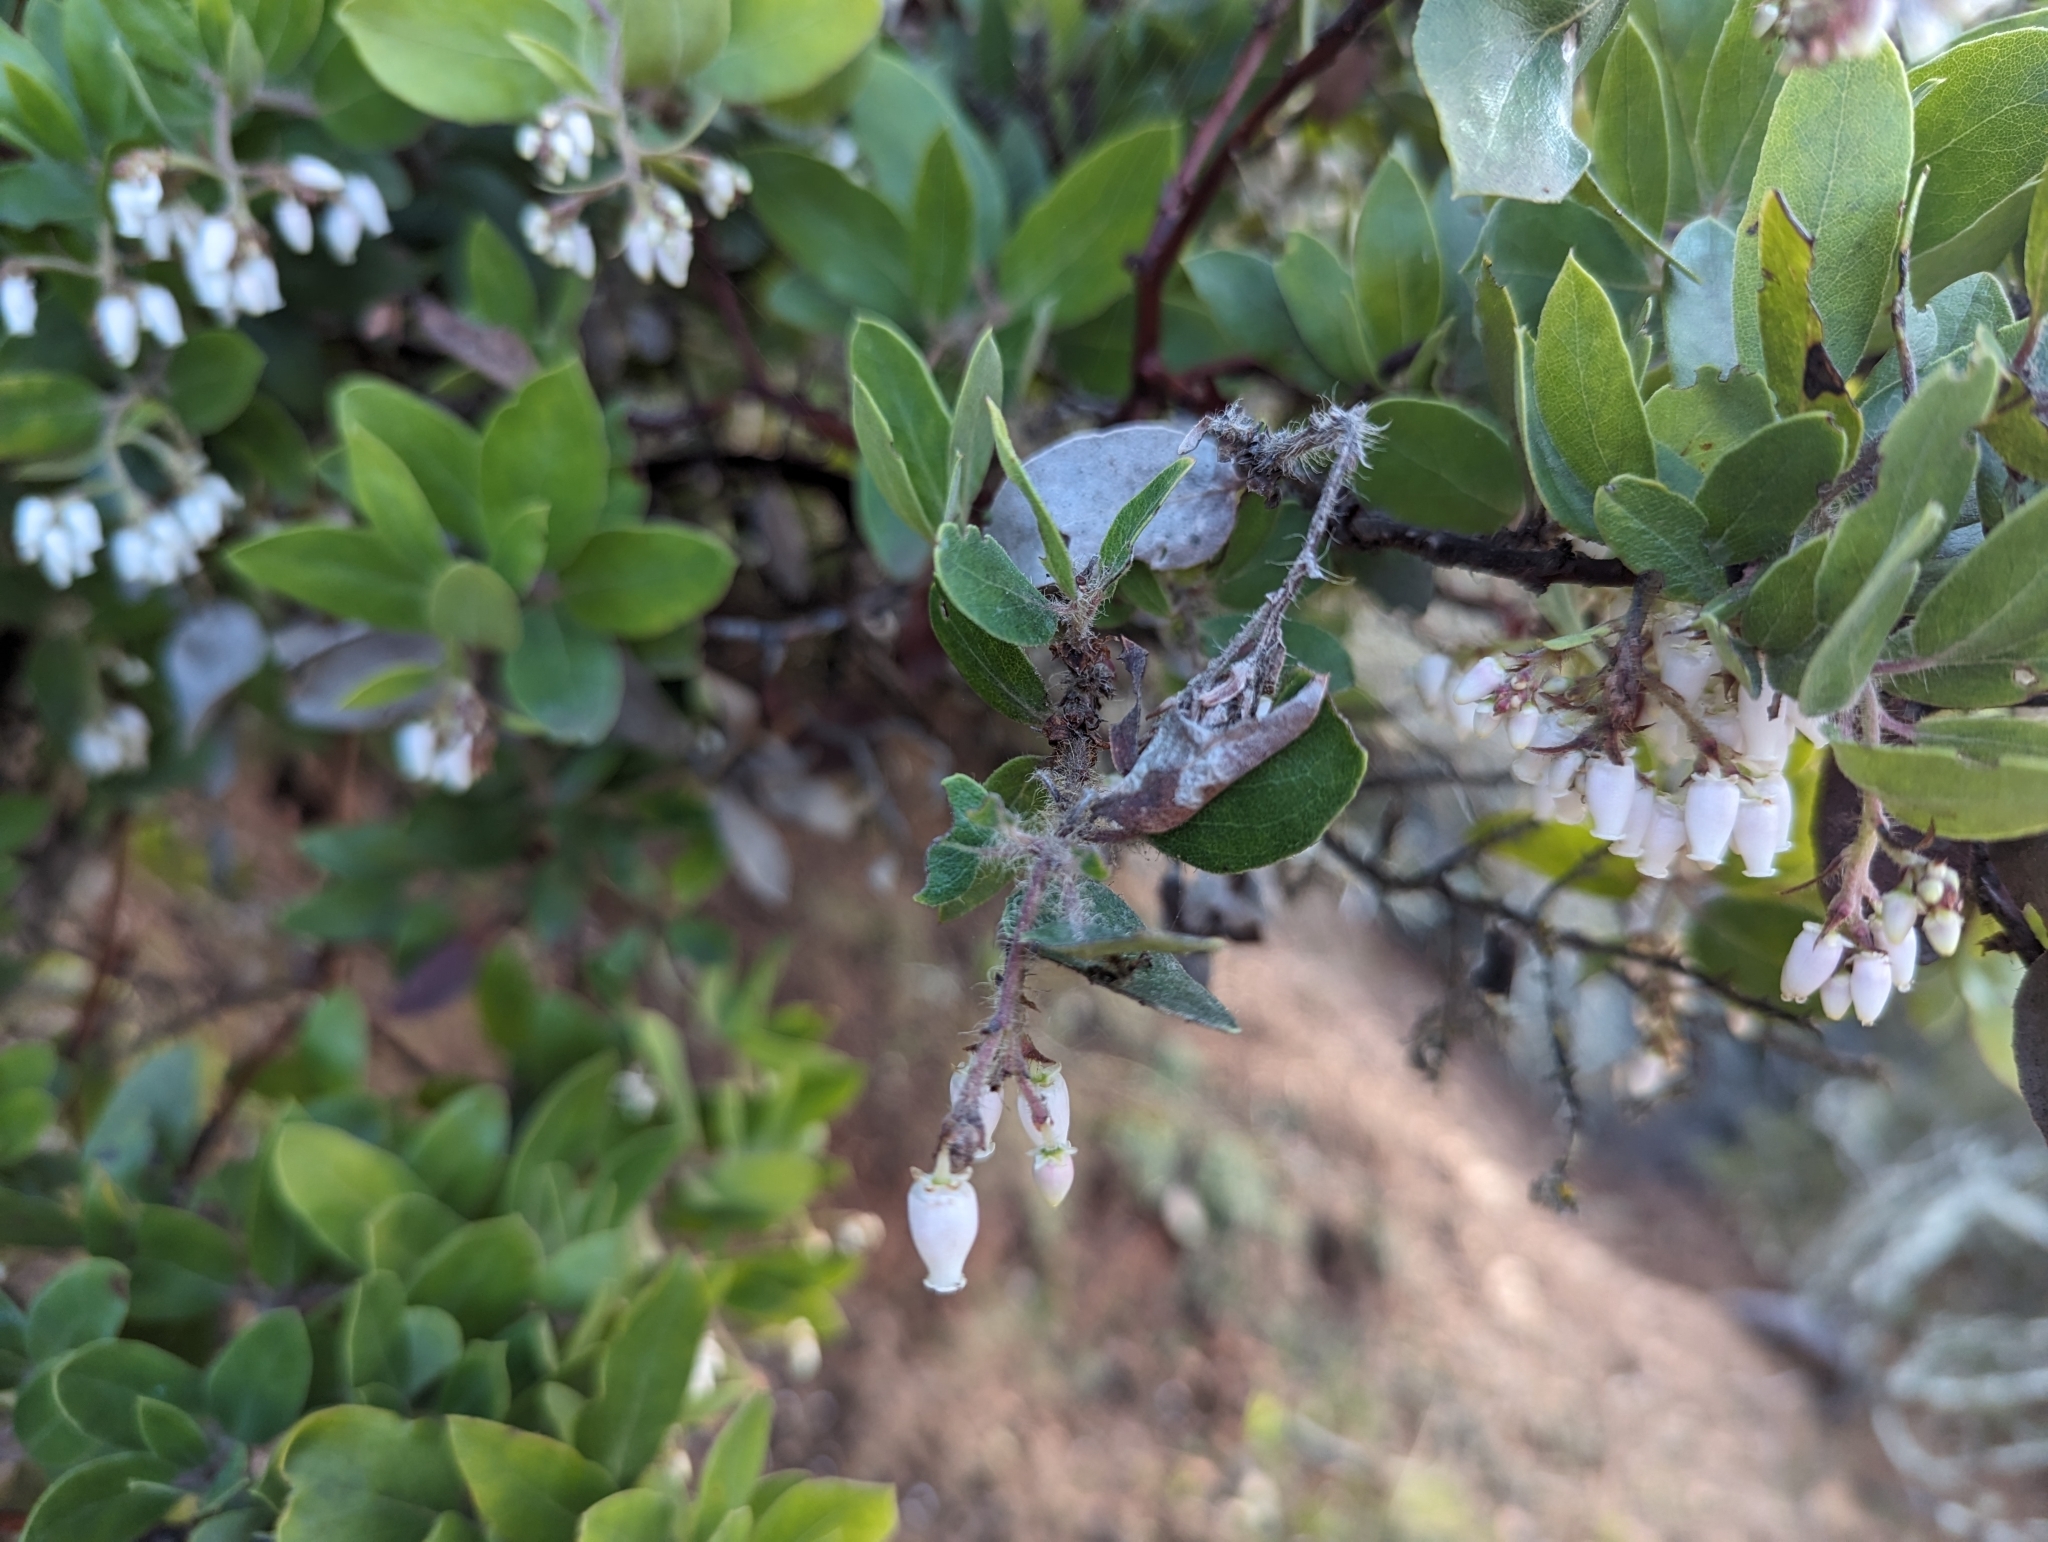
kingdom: Plantae
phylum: Tracheophyta
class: Magnoliopsida
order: Ericales
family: Ericaceae
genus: Arctostaphylos
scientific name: Arctostaphylos crustacea
